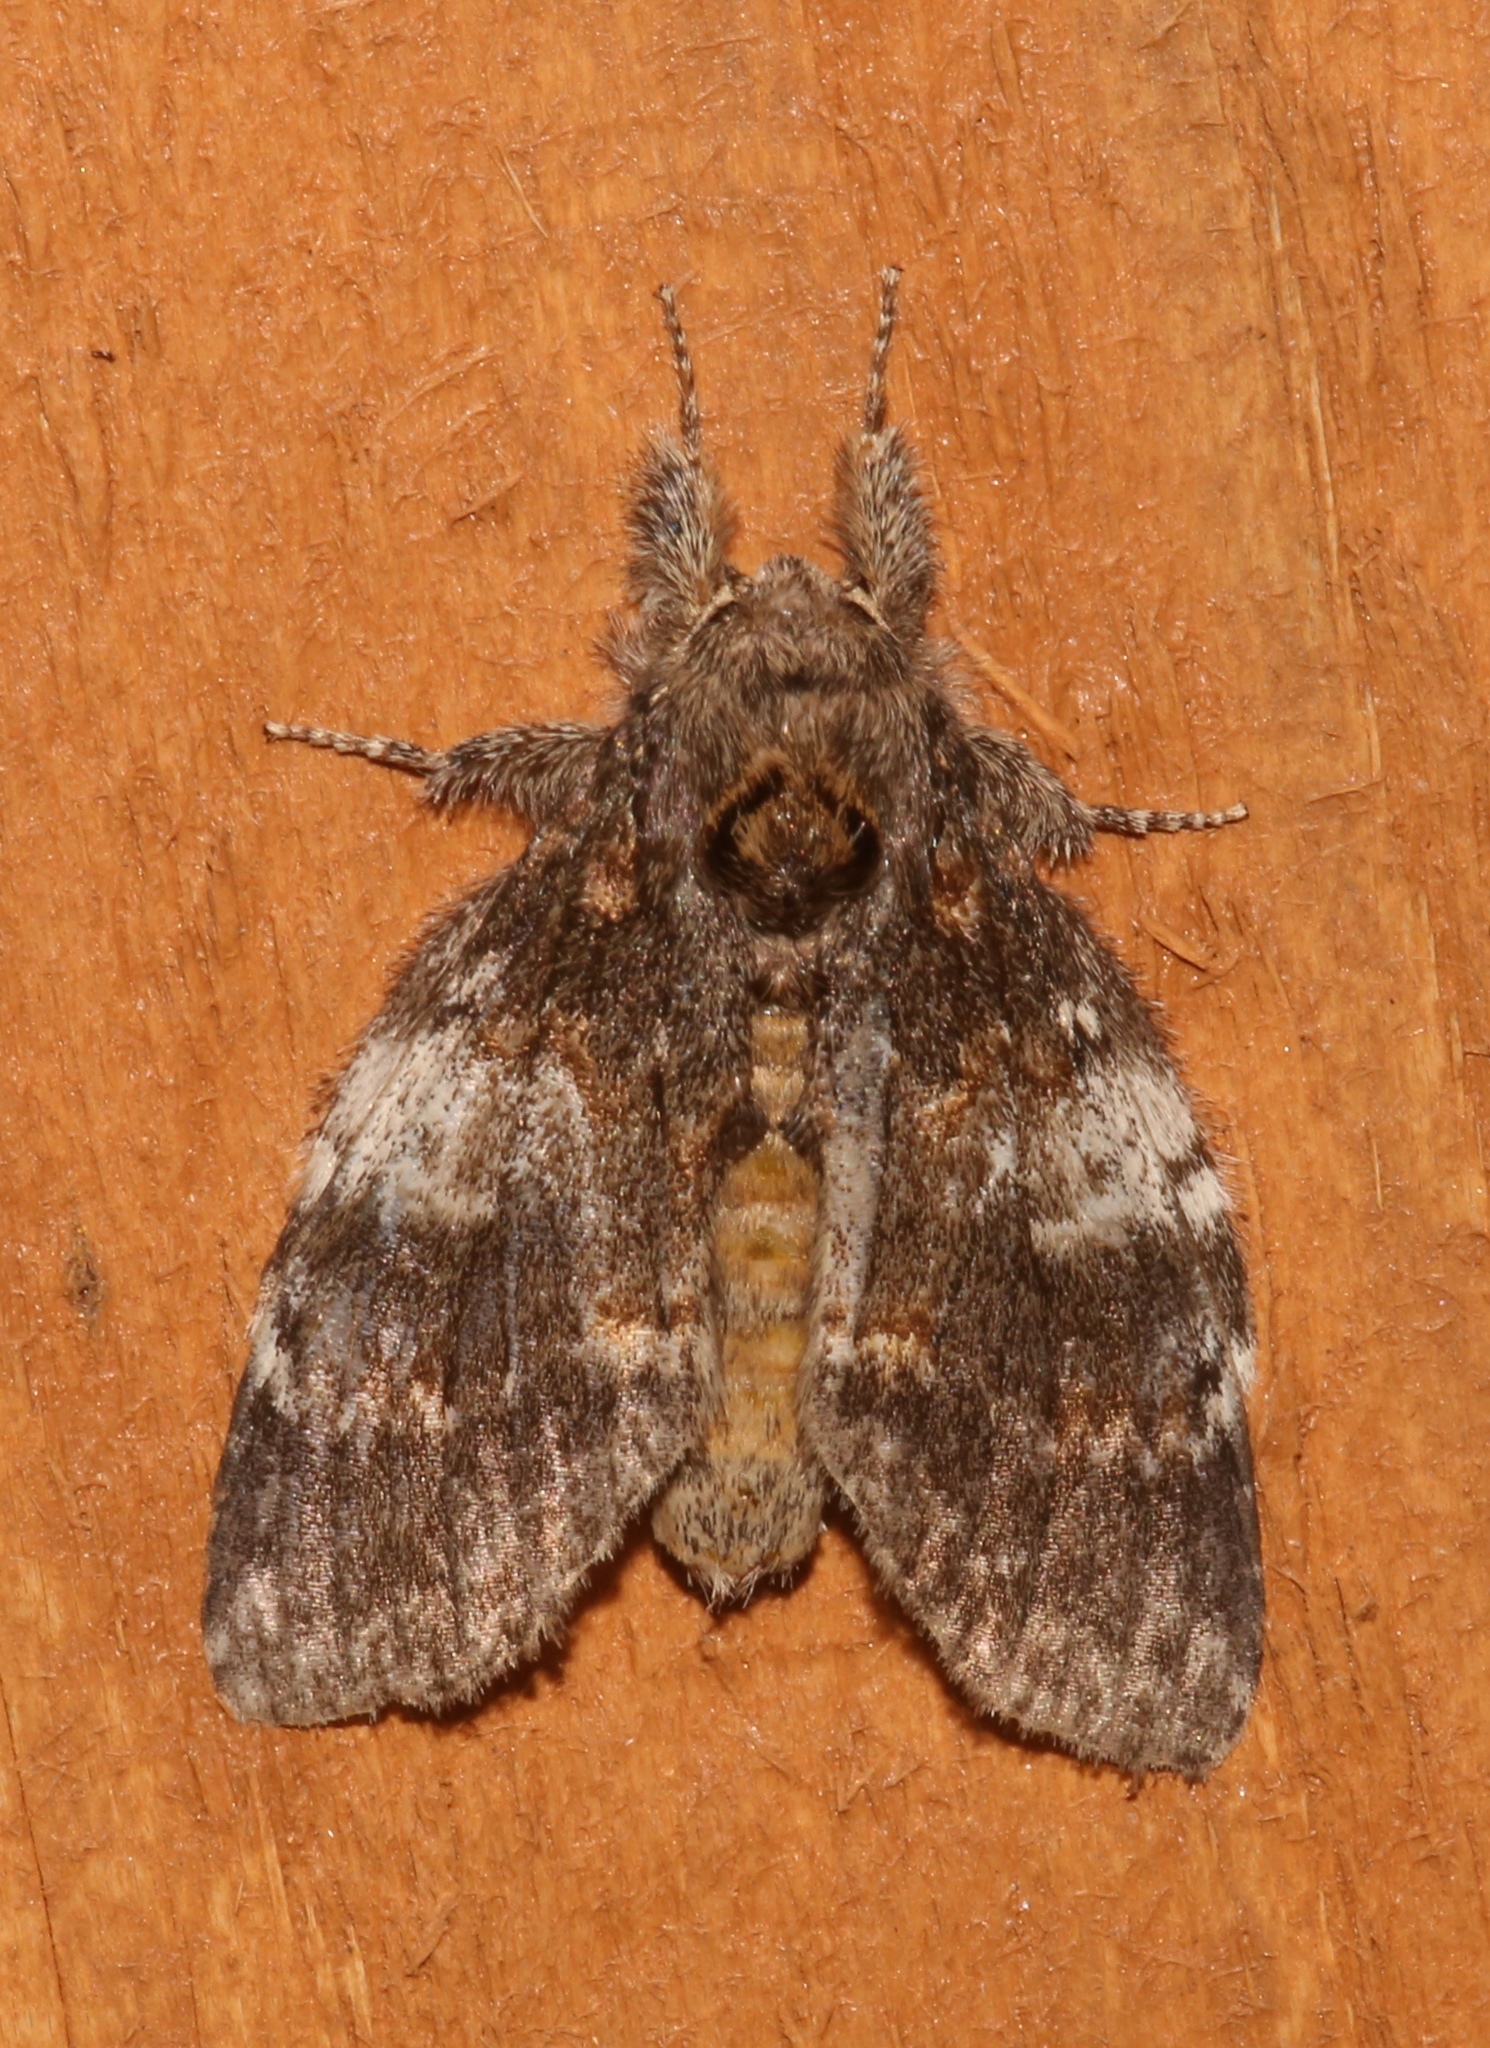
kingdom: Animalia
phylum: Arthropoda
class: Insecta
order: Lepidoptera
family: Notodontidae
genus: Peridea
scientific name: Peridea angulosa
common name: Angulose prominent
